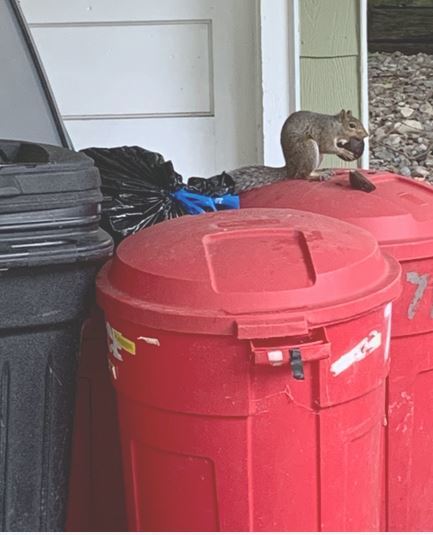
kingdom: Animalia
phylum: Chordata
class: Mammalia
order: Rodentia
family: Sciuridae
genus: Sciurus
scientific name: Sciurus carolinensis
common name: Eastern gray squirrel
